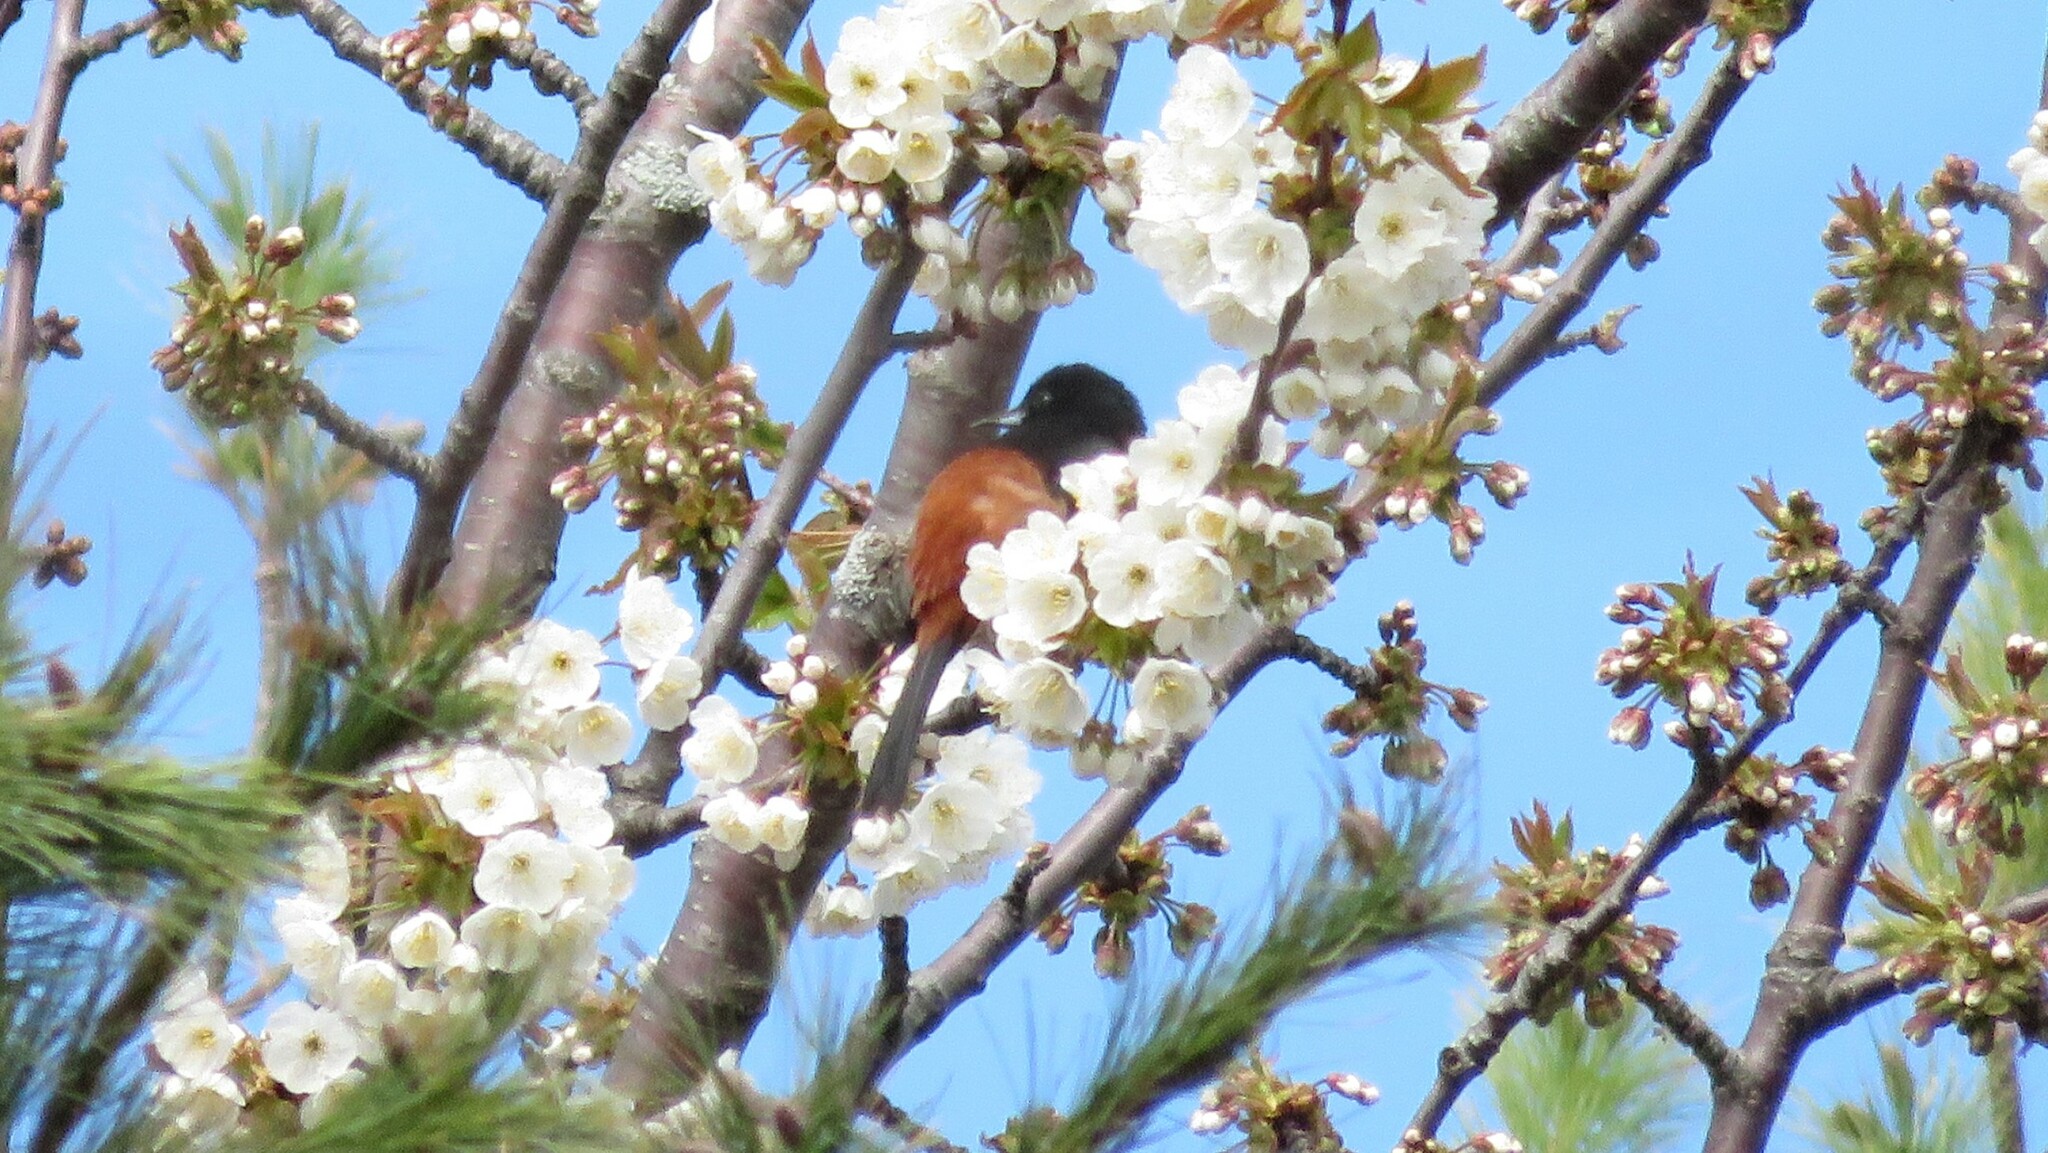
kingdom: Animalia
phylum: Chordata
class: Aves
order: Passeriformes
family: Icteridae
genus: Icterus
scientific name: Icterus spurius
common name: Orchard oriole
